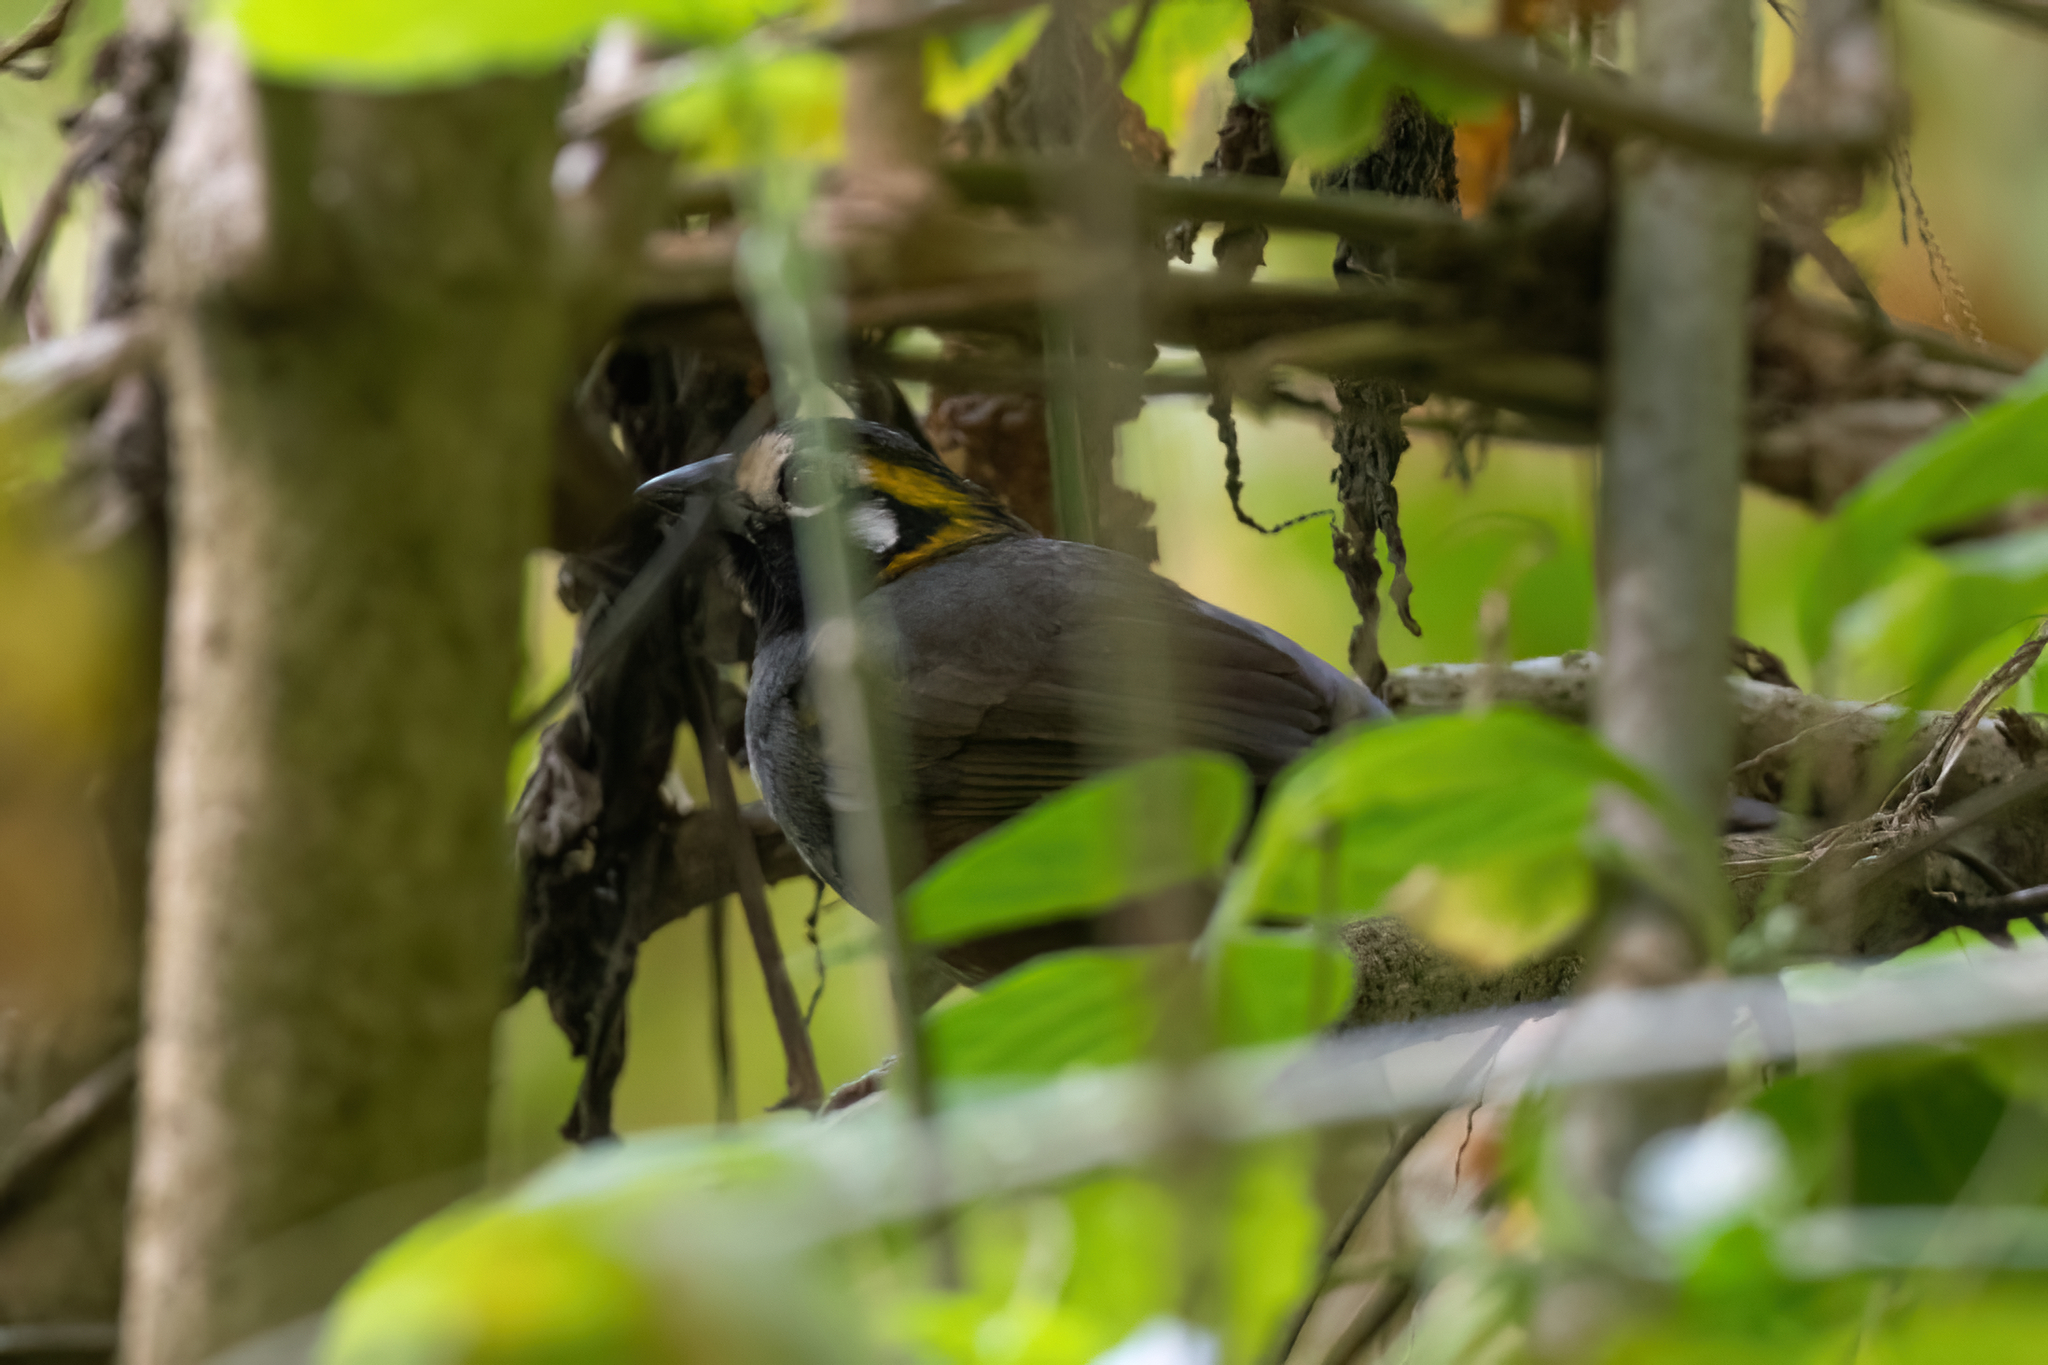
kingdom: Animalia
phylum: Chordata
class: Aves
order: Passeriformes
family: Passerellidae
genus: Melozone
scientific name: Melozone leucotis
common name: White-eared ground-sparrow
